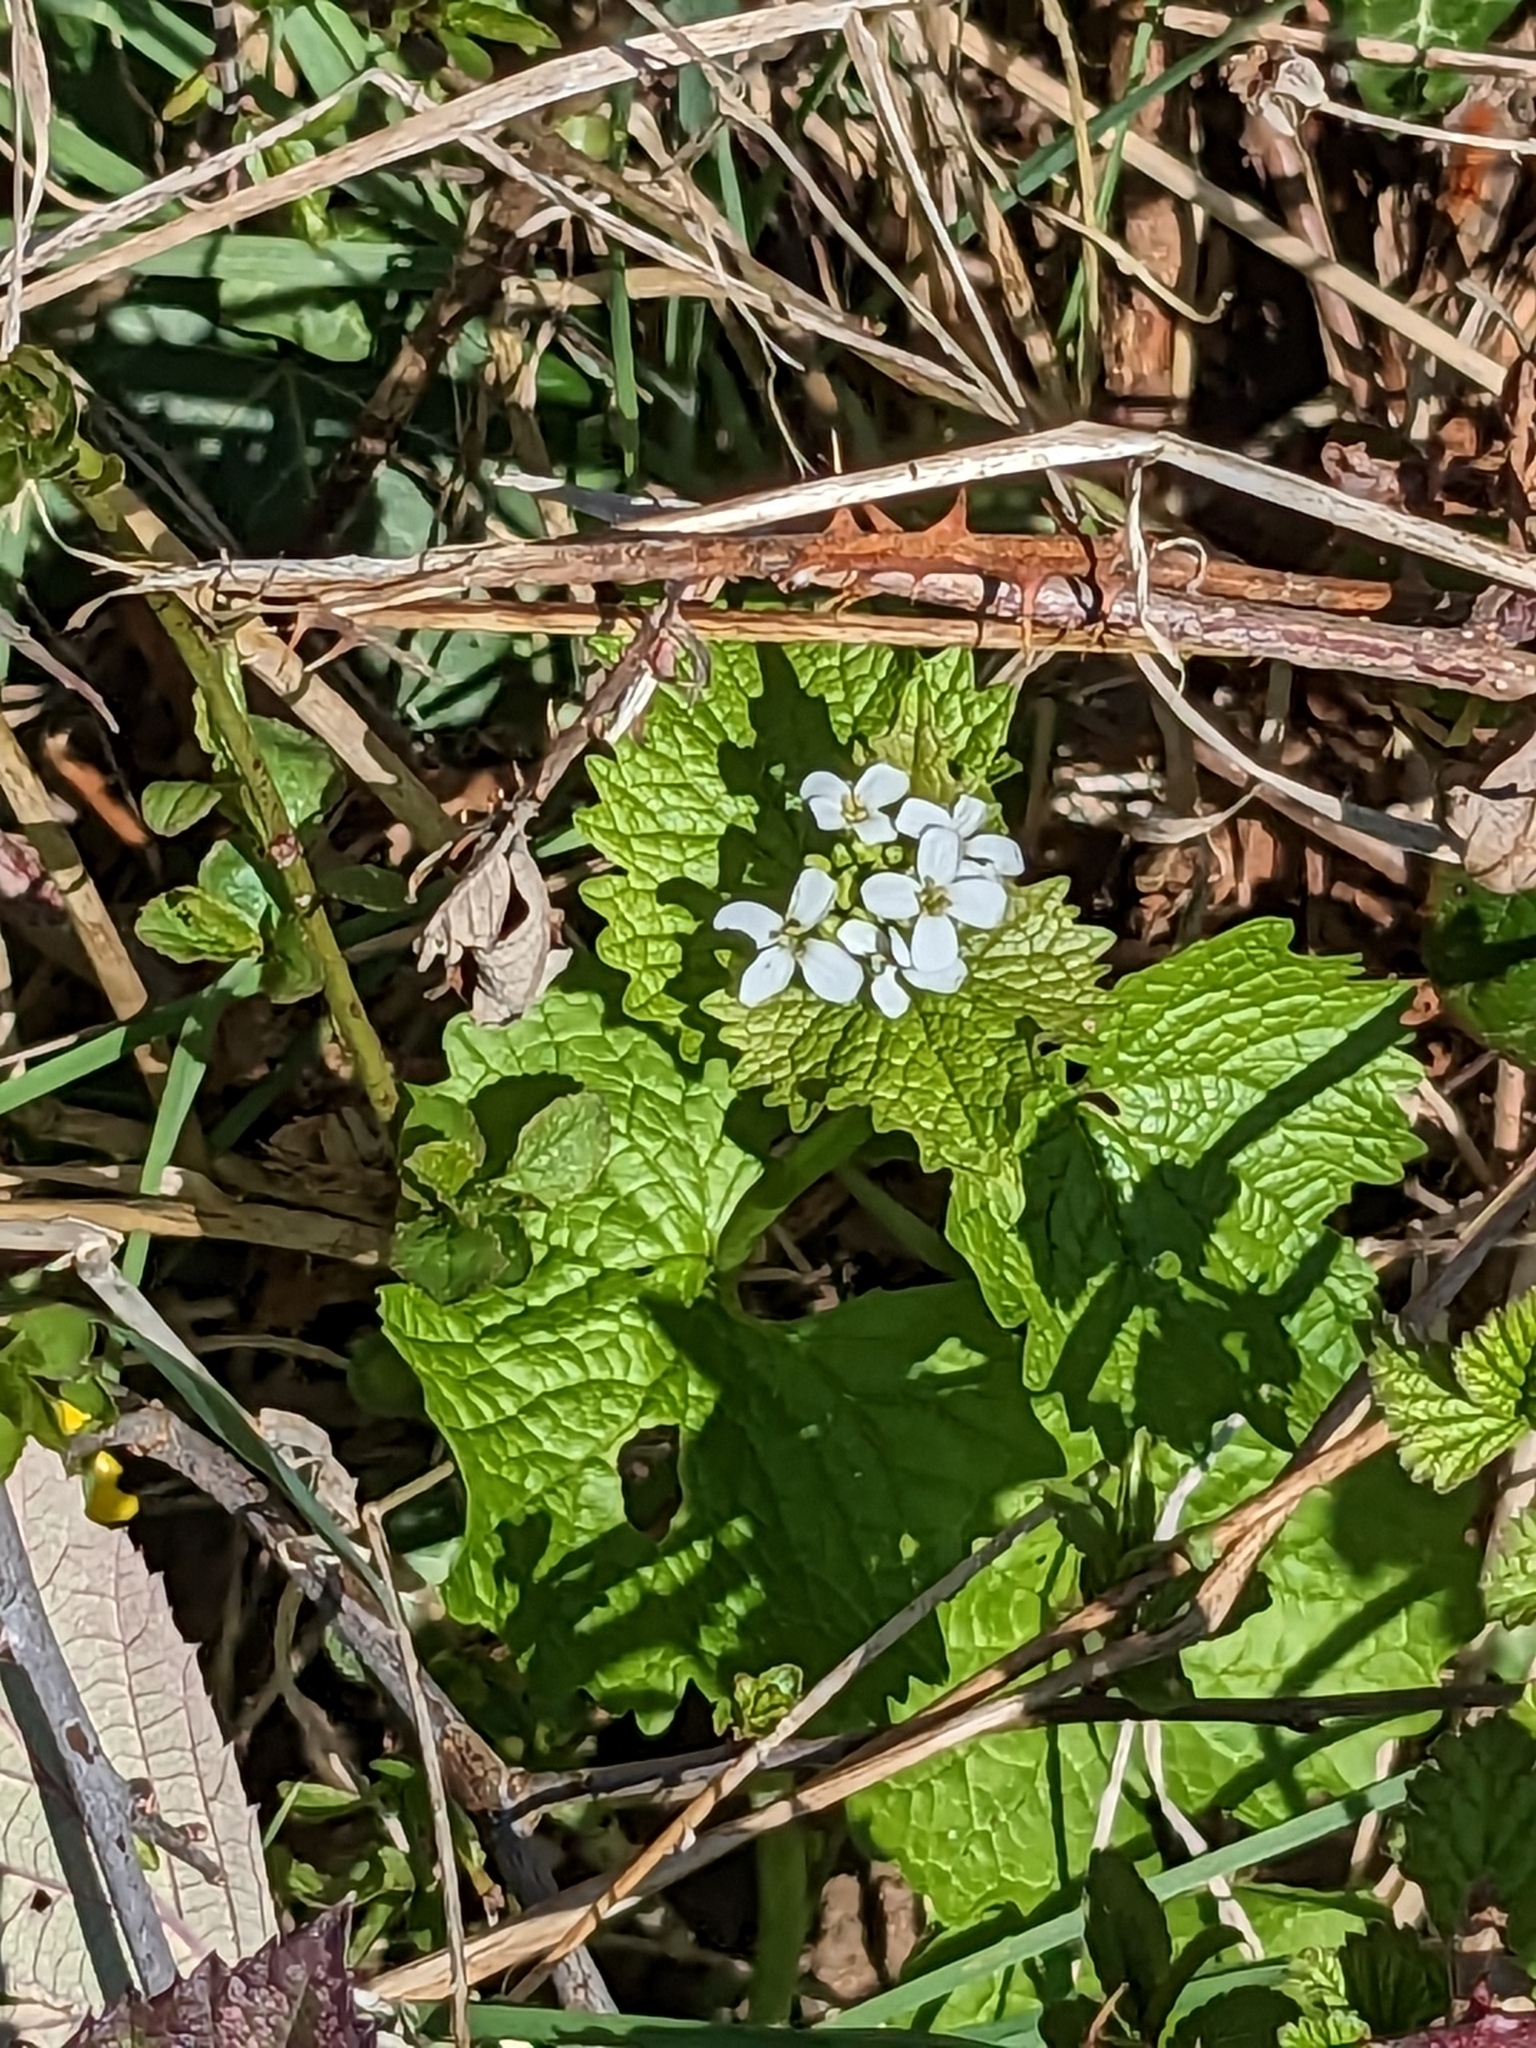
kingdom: Plantae
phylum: Tracheophyta
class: Magnoliopsida
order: Brassicales
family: Brassicaceae
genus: Alliaria
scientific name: Alliaria petiolata
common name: Garlic mustard
